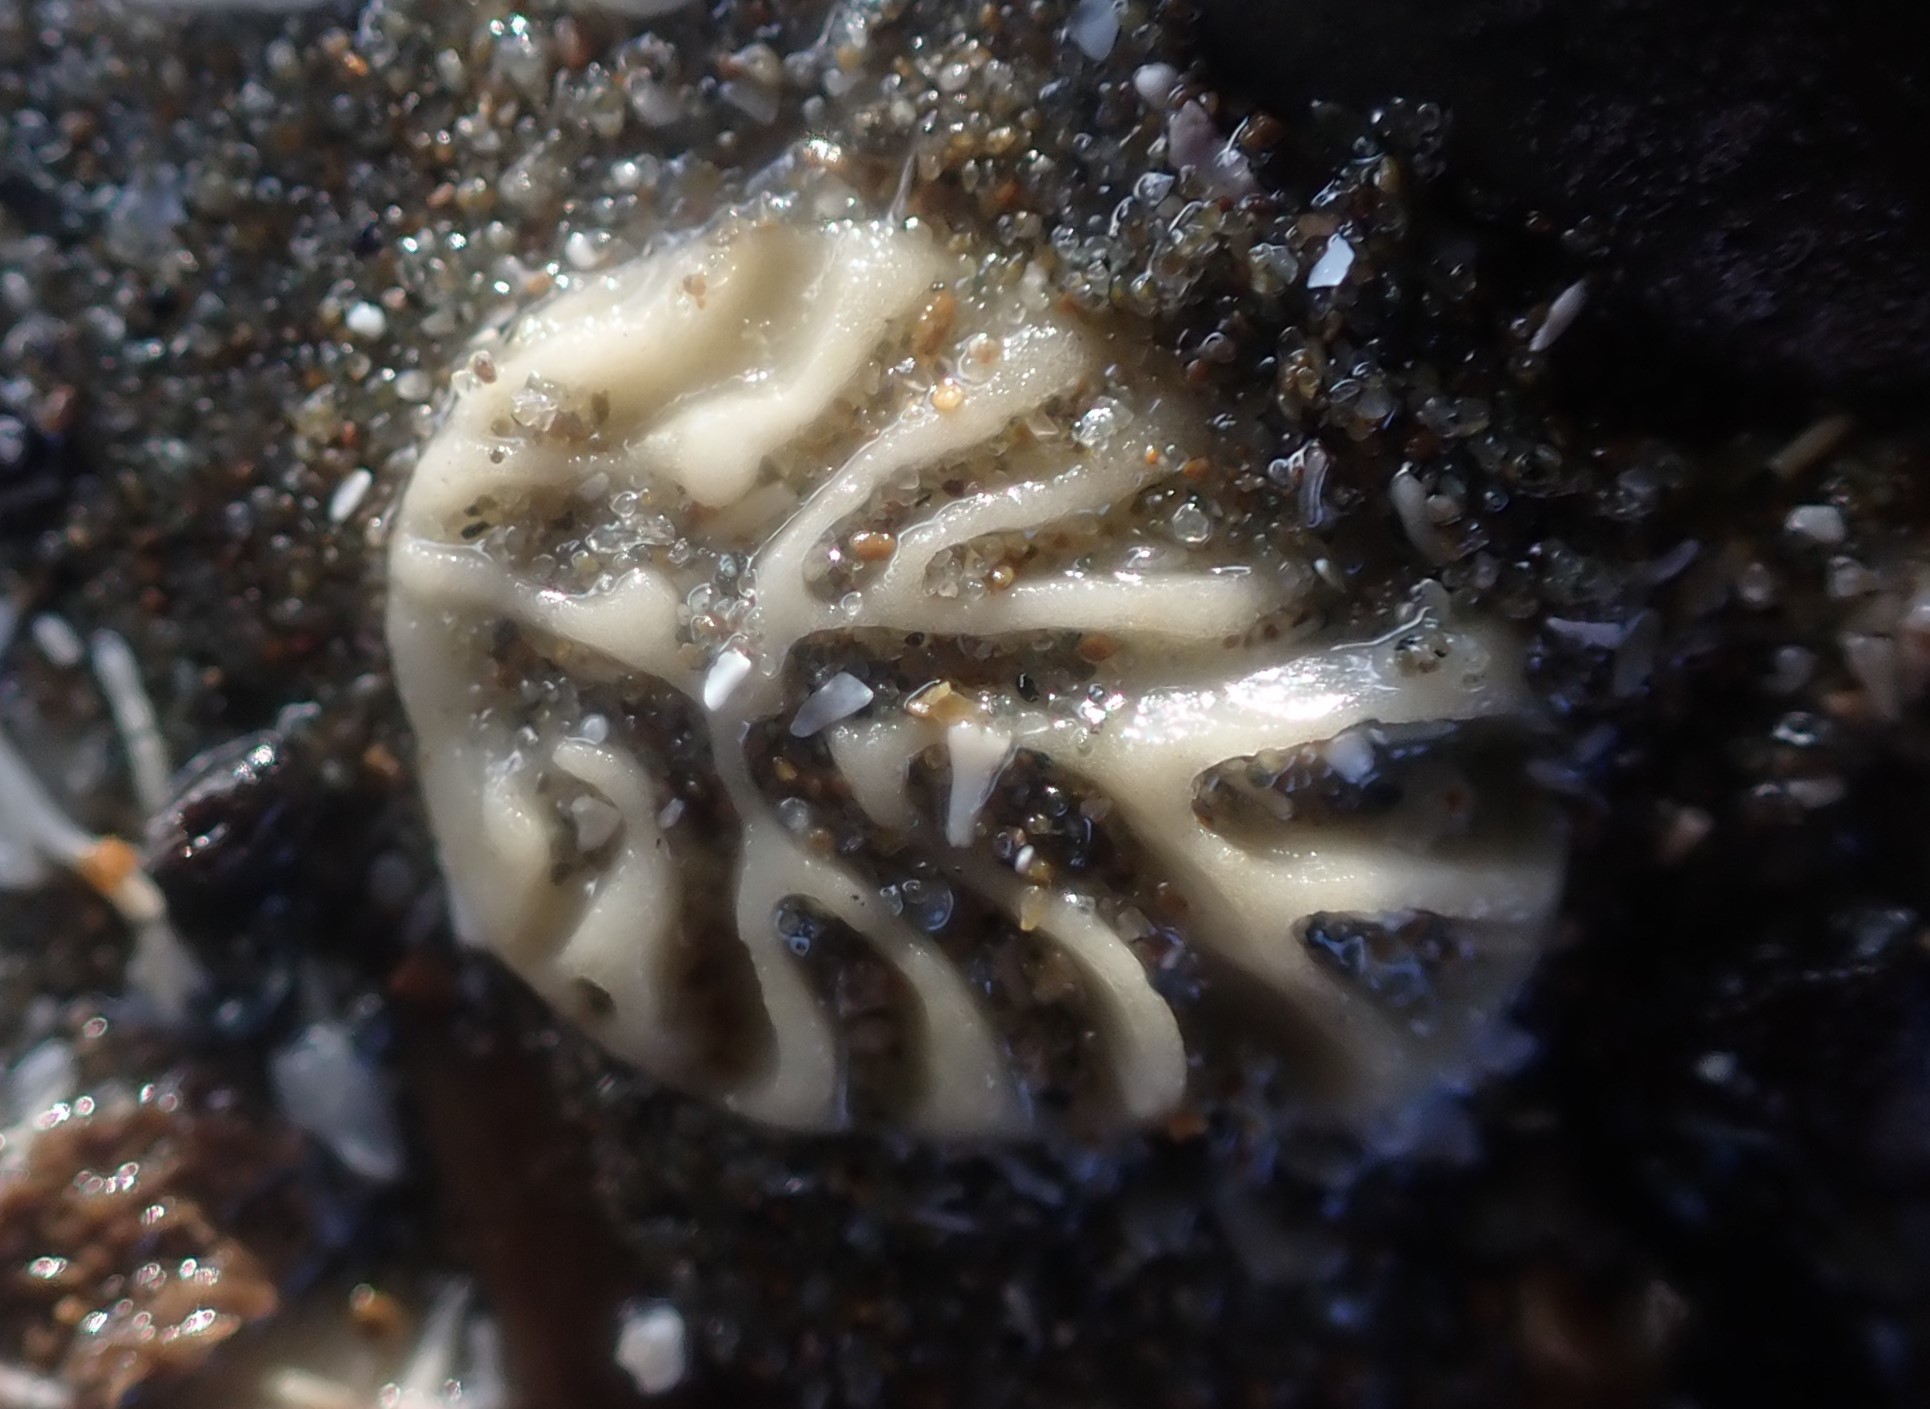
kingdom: Animalia
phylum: Echinodermata
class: Echinoidea
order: Clypeasteroida
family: Clypeasteridae
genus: Fellaster
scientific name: Fellaster zelandiae
